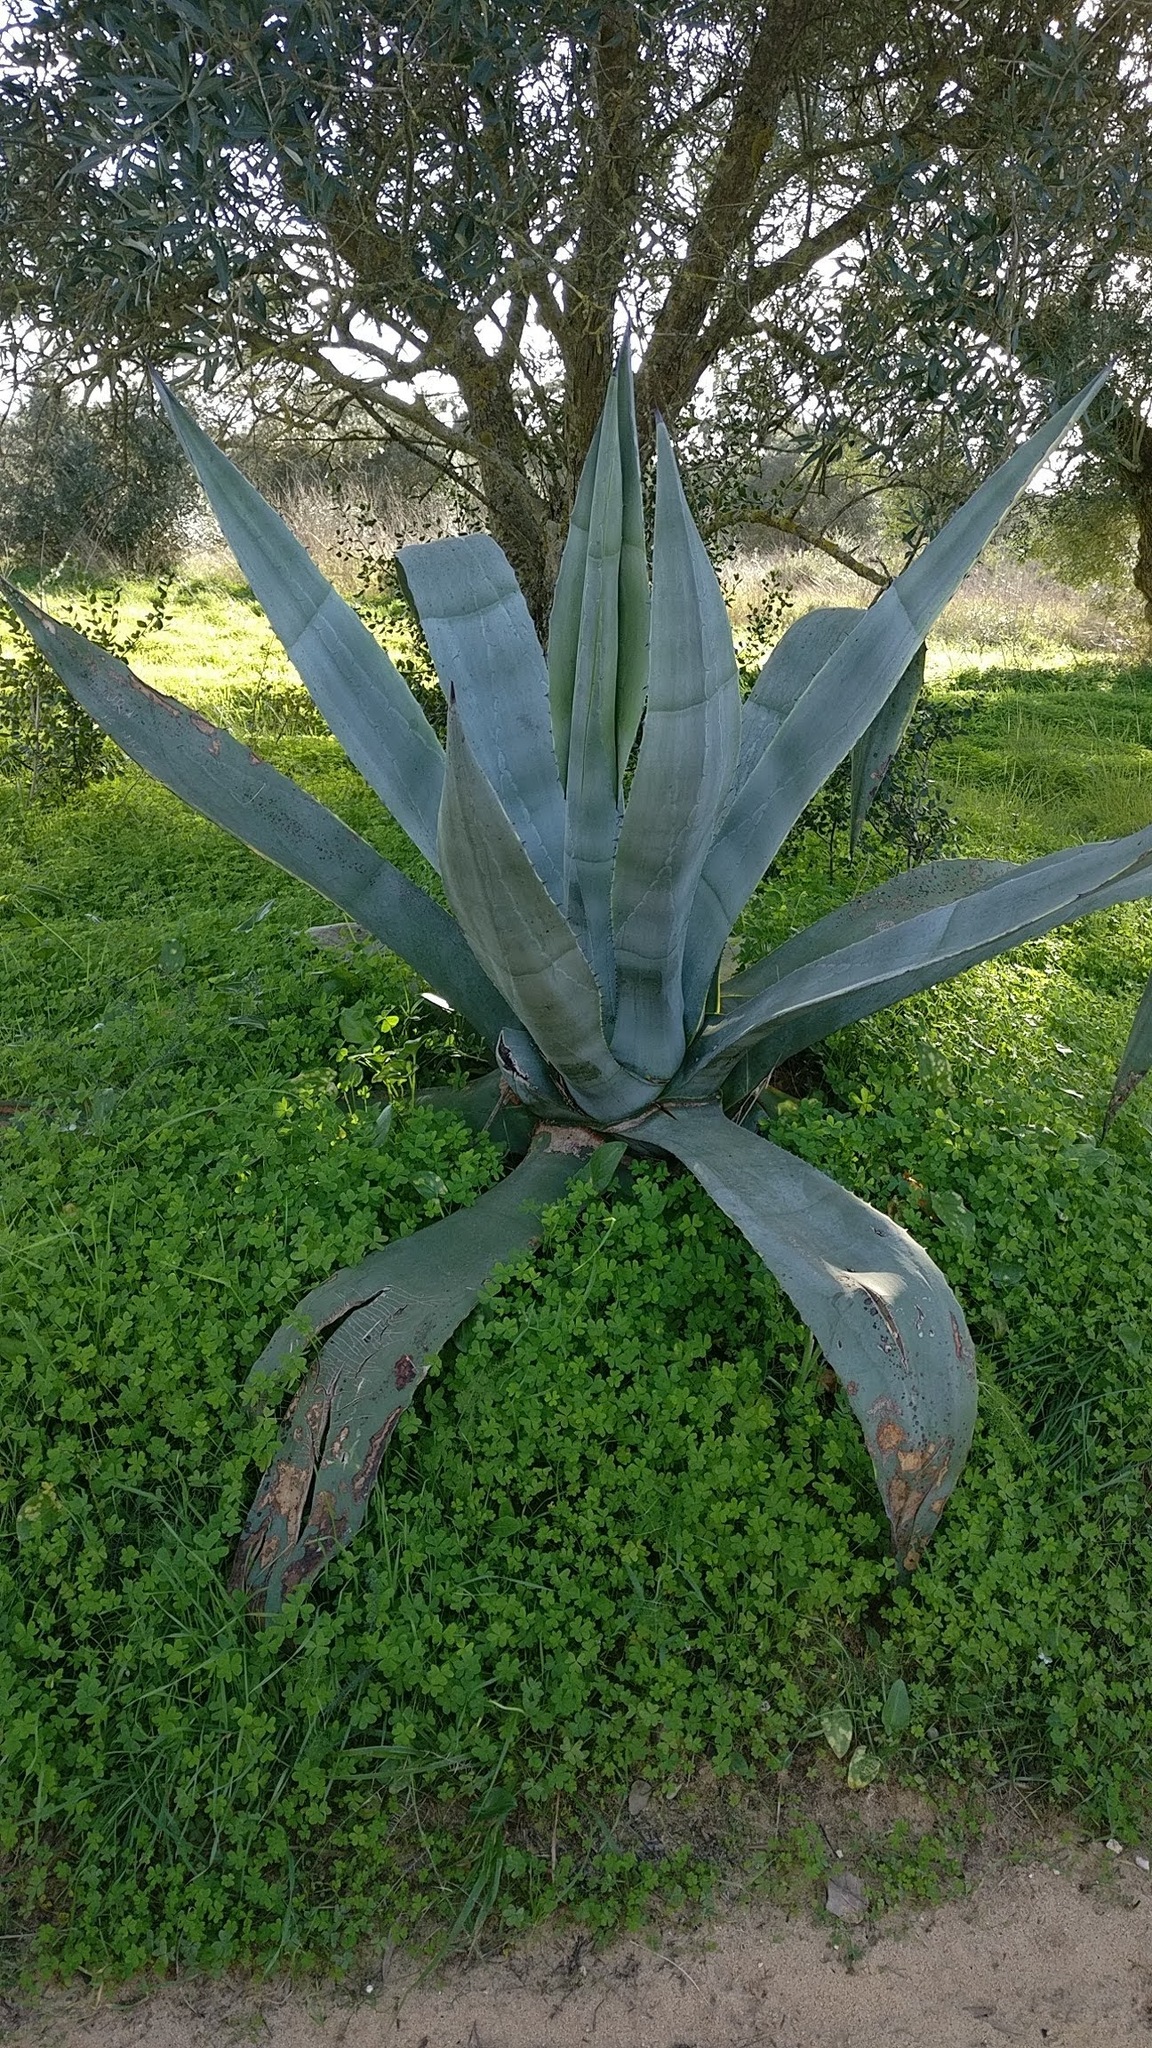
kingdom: Plantae
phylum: Tracheophyta
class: Liliopsida
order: Asparagales
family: Asparagaceae
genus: Agave
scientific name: Agave americana
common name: Centuryplant
